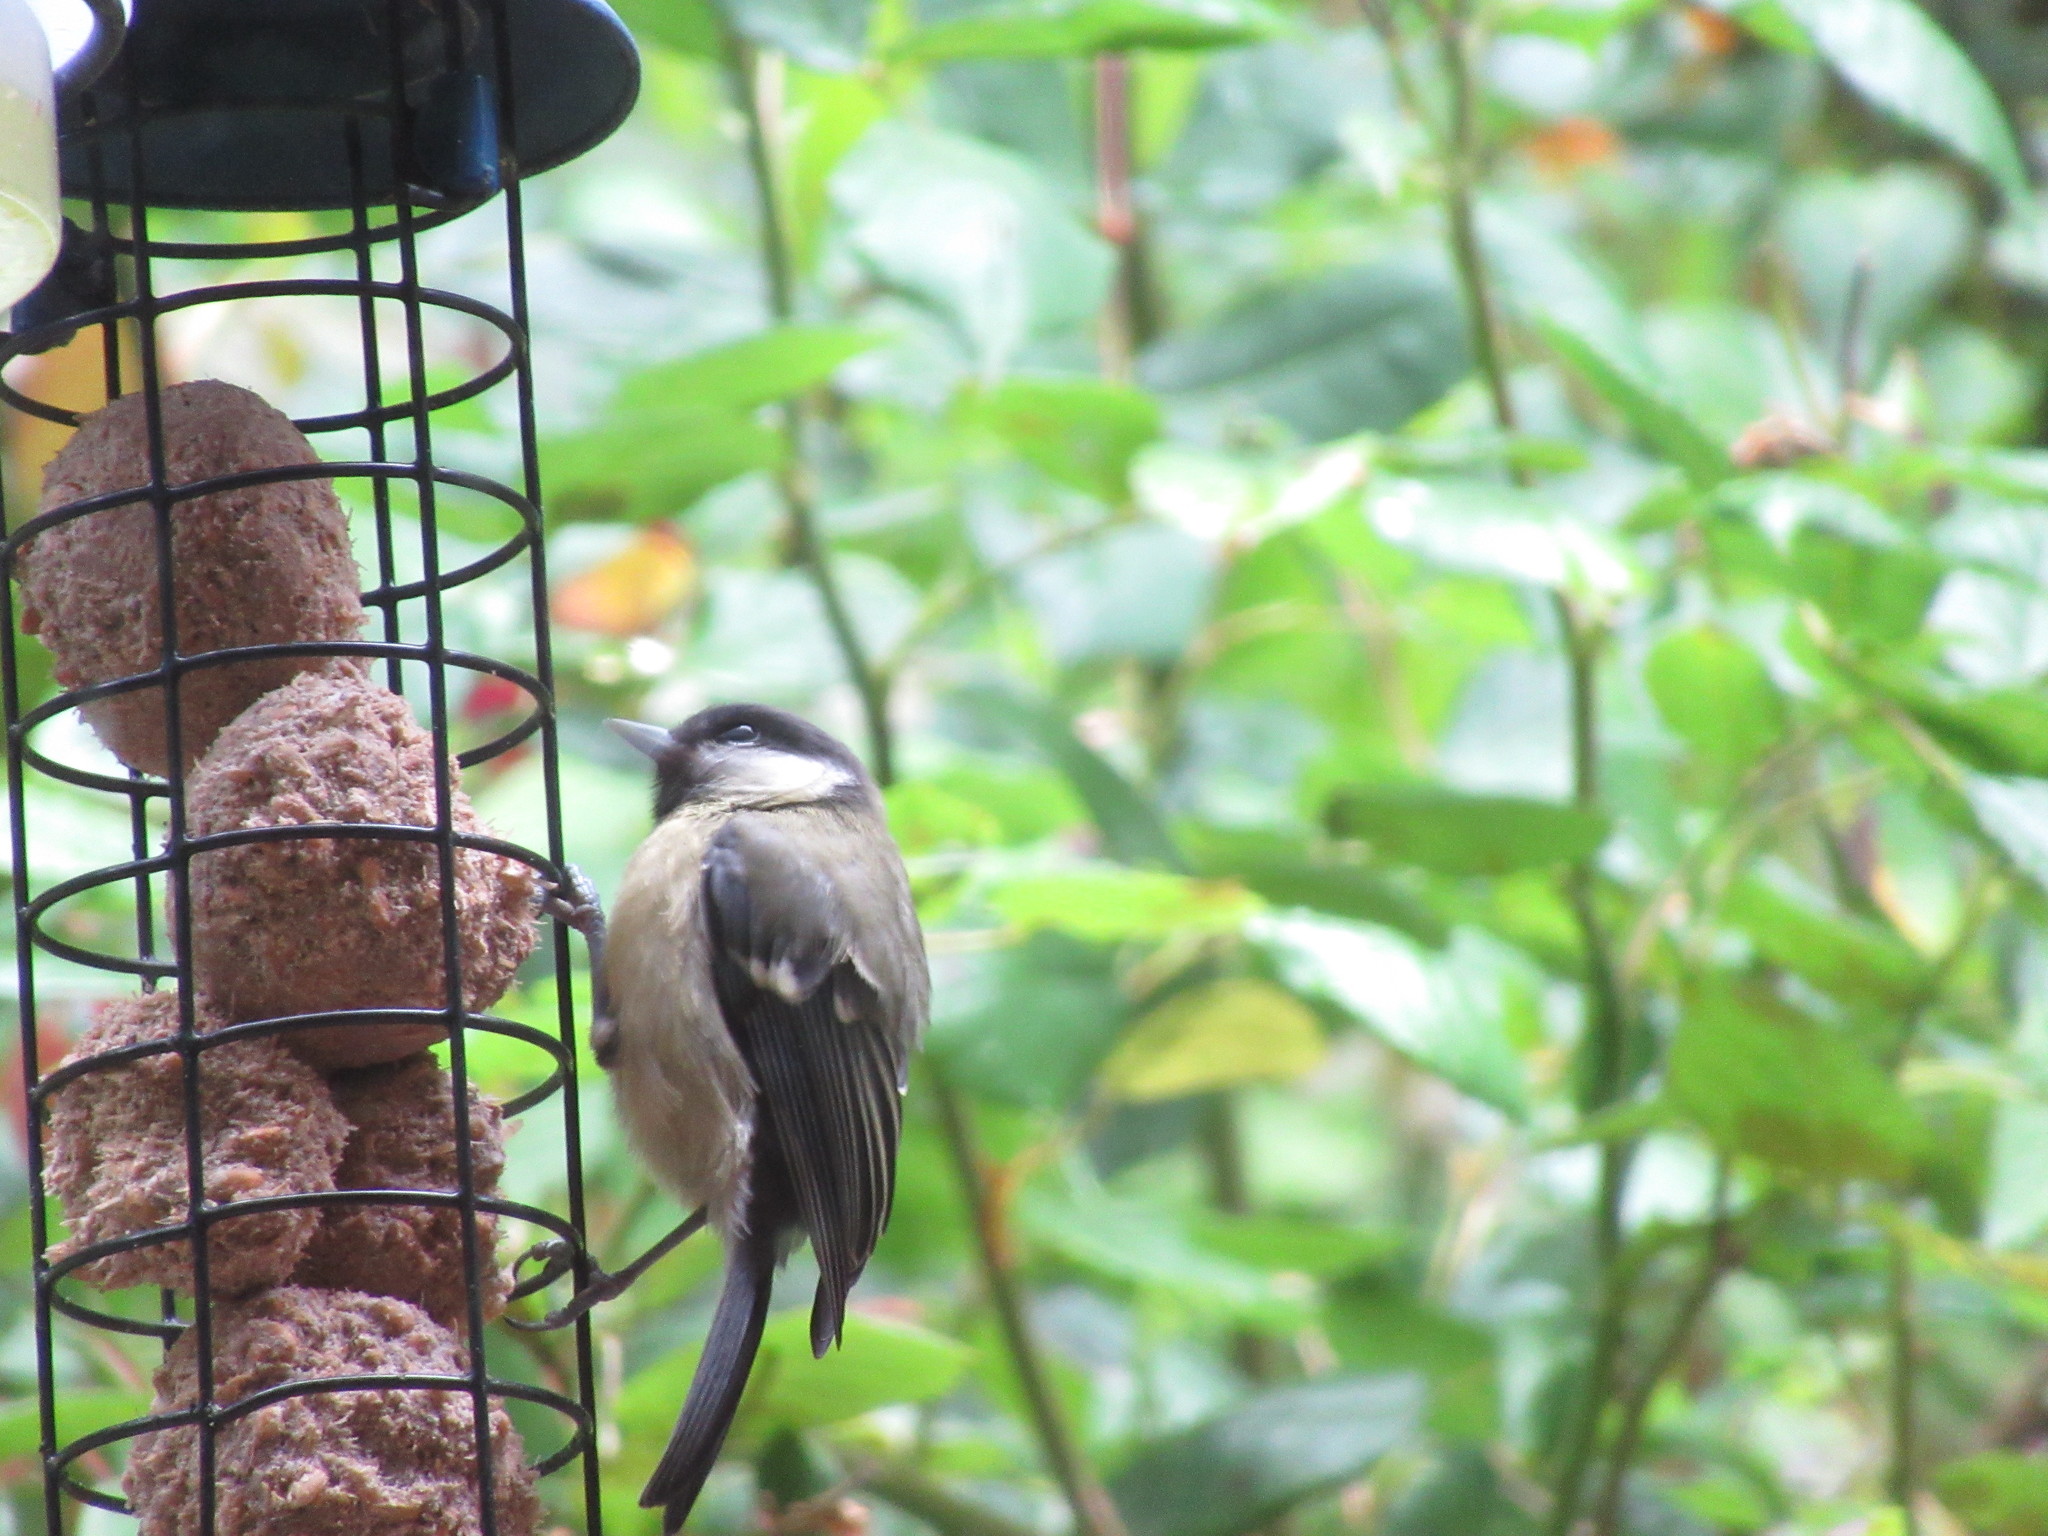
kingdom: Animalia
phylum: Chordata
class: Aves
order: Passeriformes
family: Paridae
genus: Parus
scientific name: Parus major
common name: Great tit
